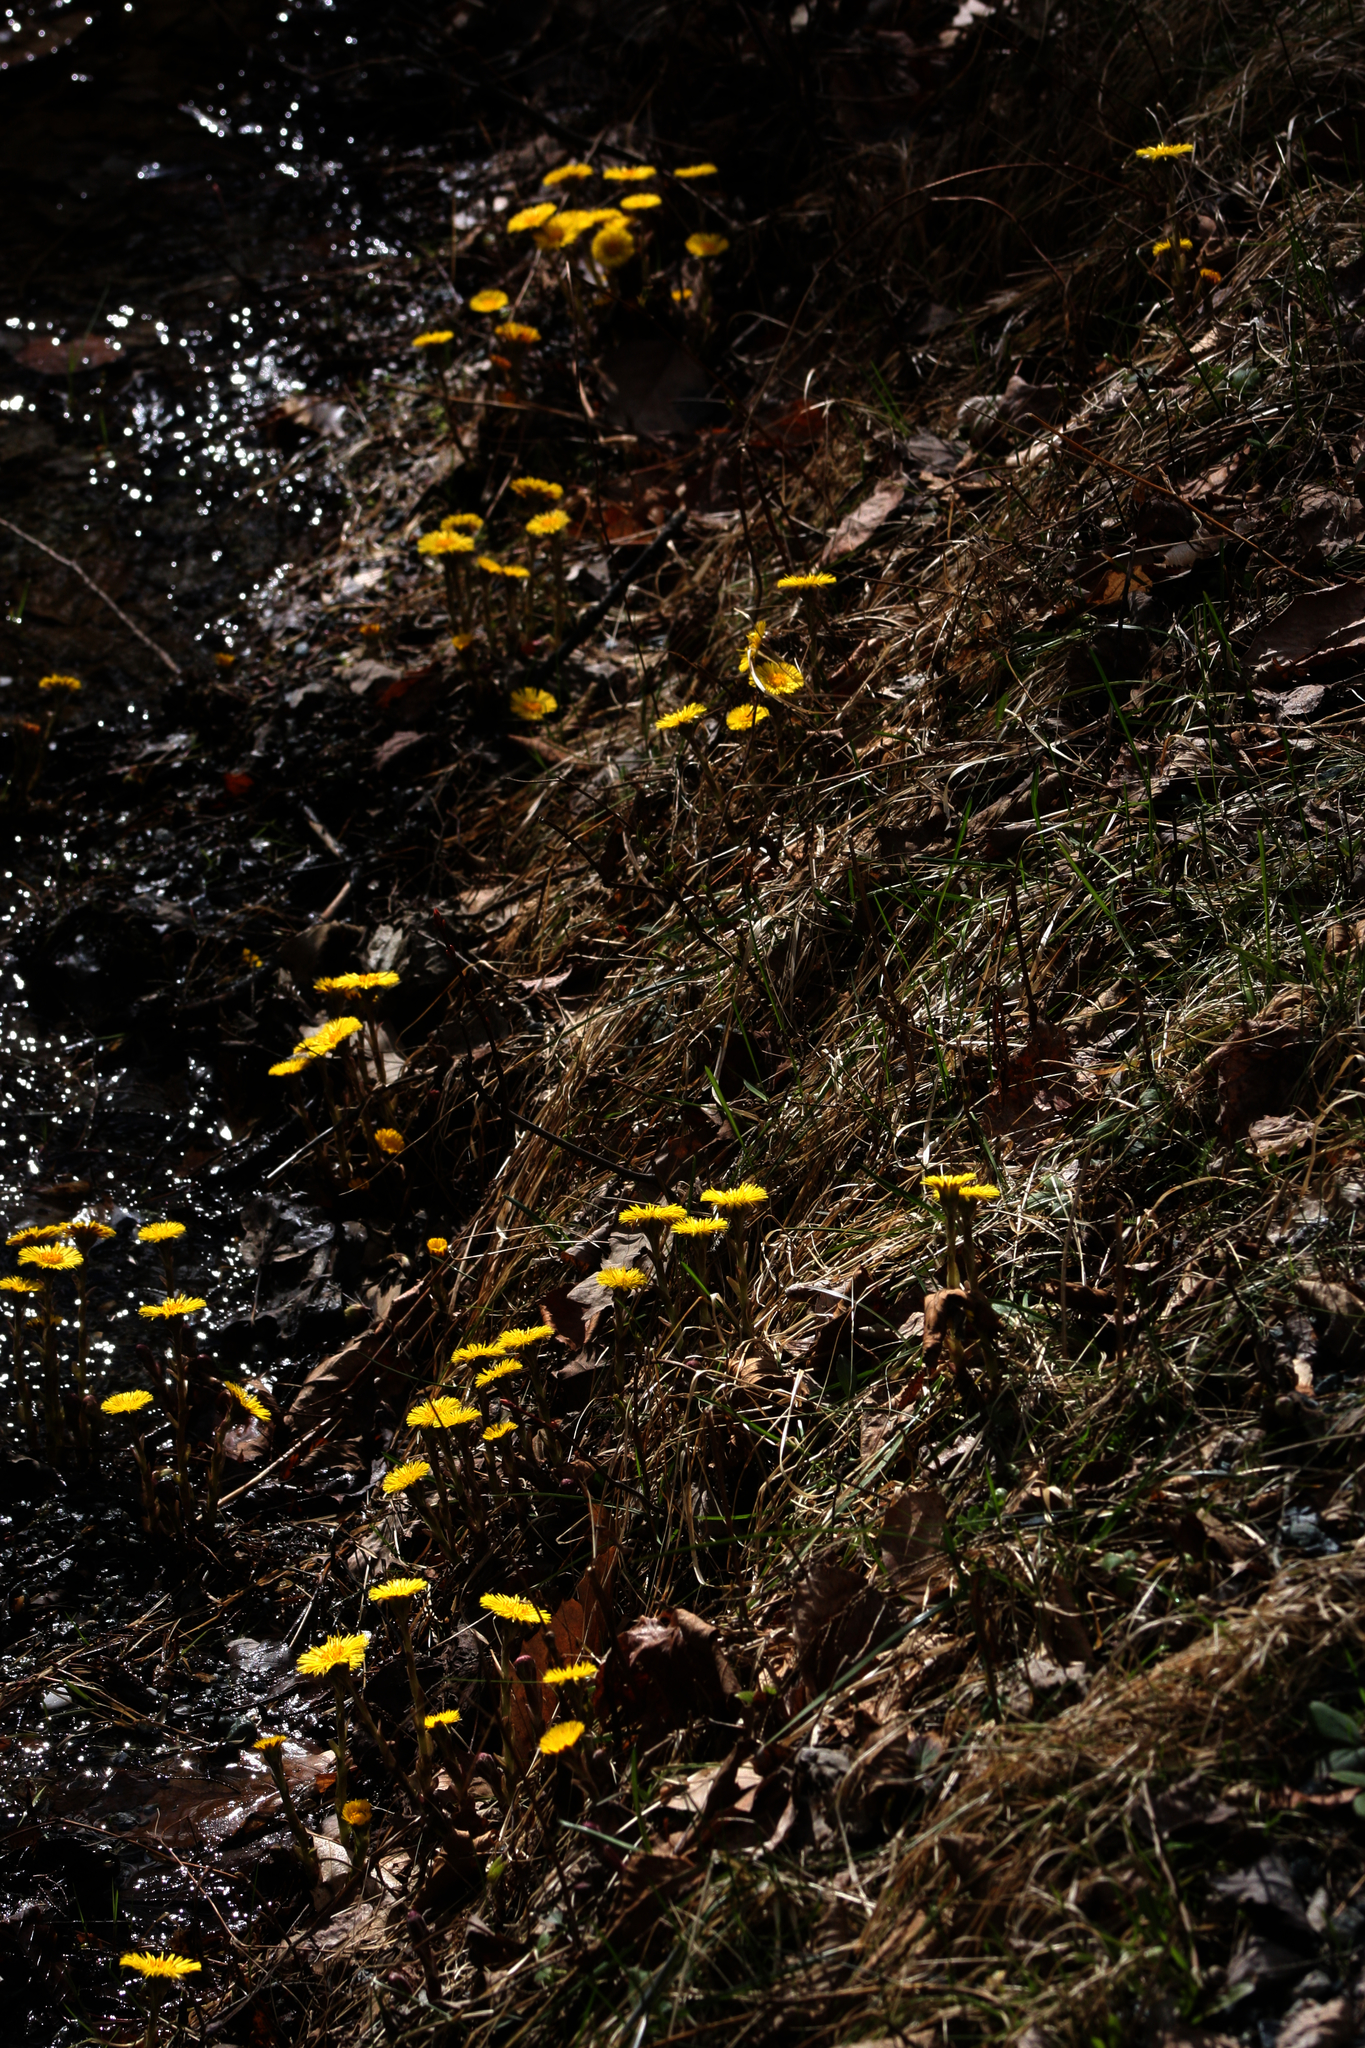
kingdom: Plantae
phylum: Tracheophyta
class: Magnoliopsida
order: Asterales
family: Asteraceae
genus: Tussilago
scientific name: Tussilago farfara
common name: Coltsfoot
